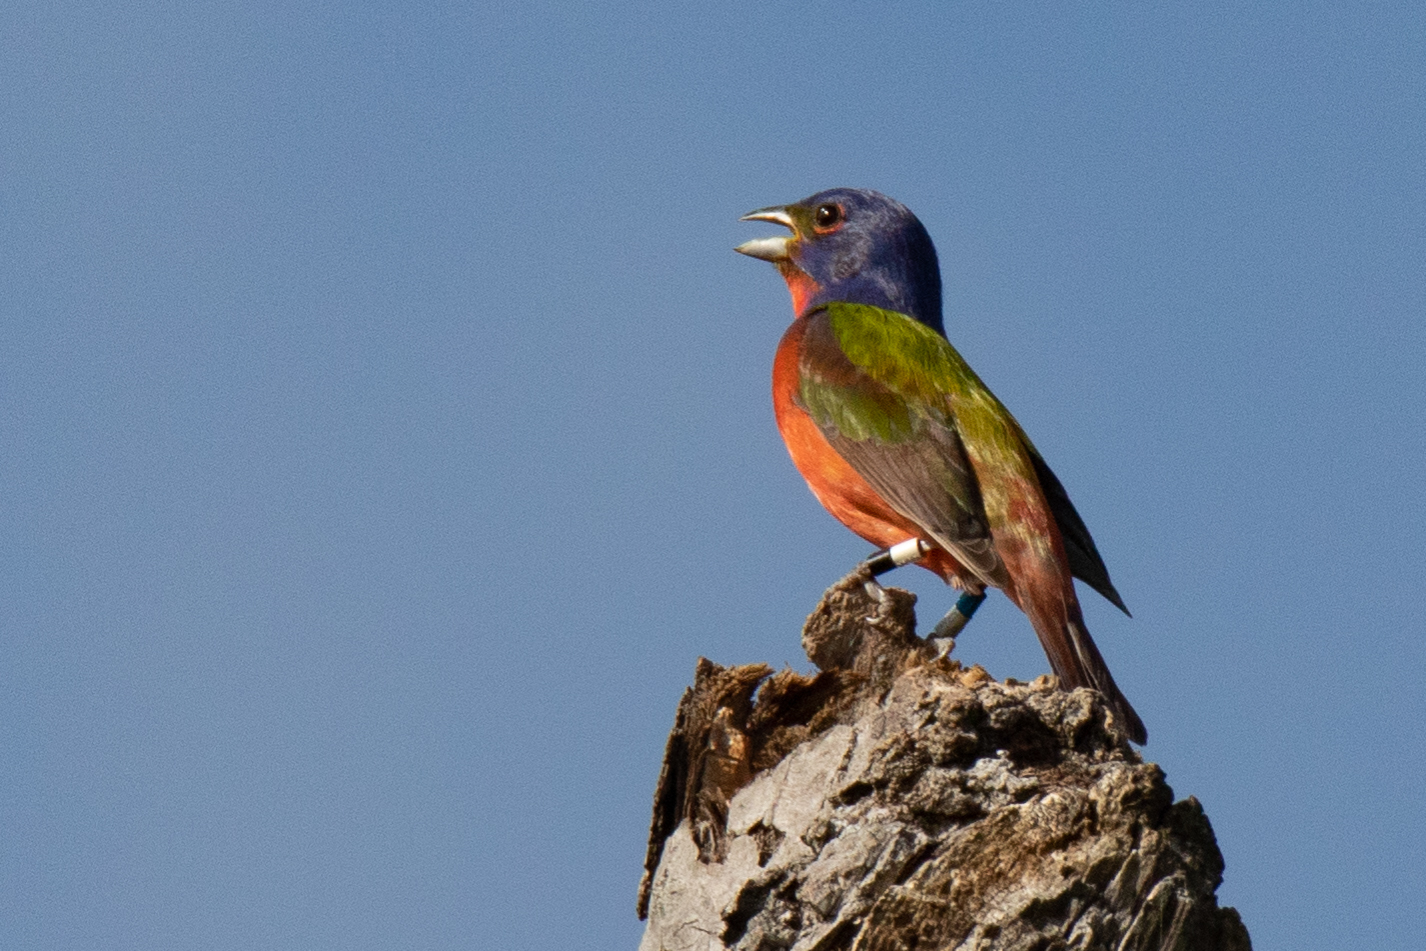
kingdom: Animalia
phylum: Chordata
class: Aves
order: Passeriformes
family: Cardinalidae
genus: Passerina
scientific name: Passerina ciris
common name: Painted bunting
